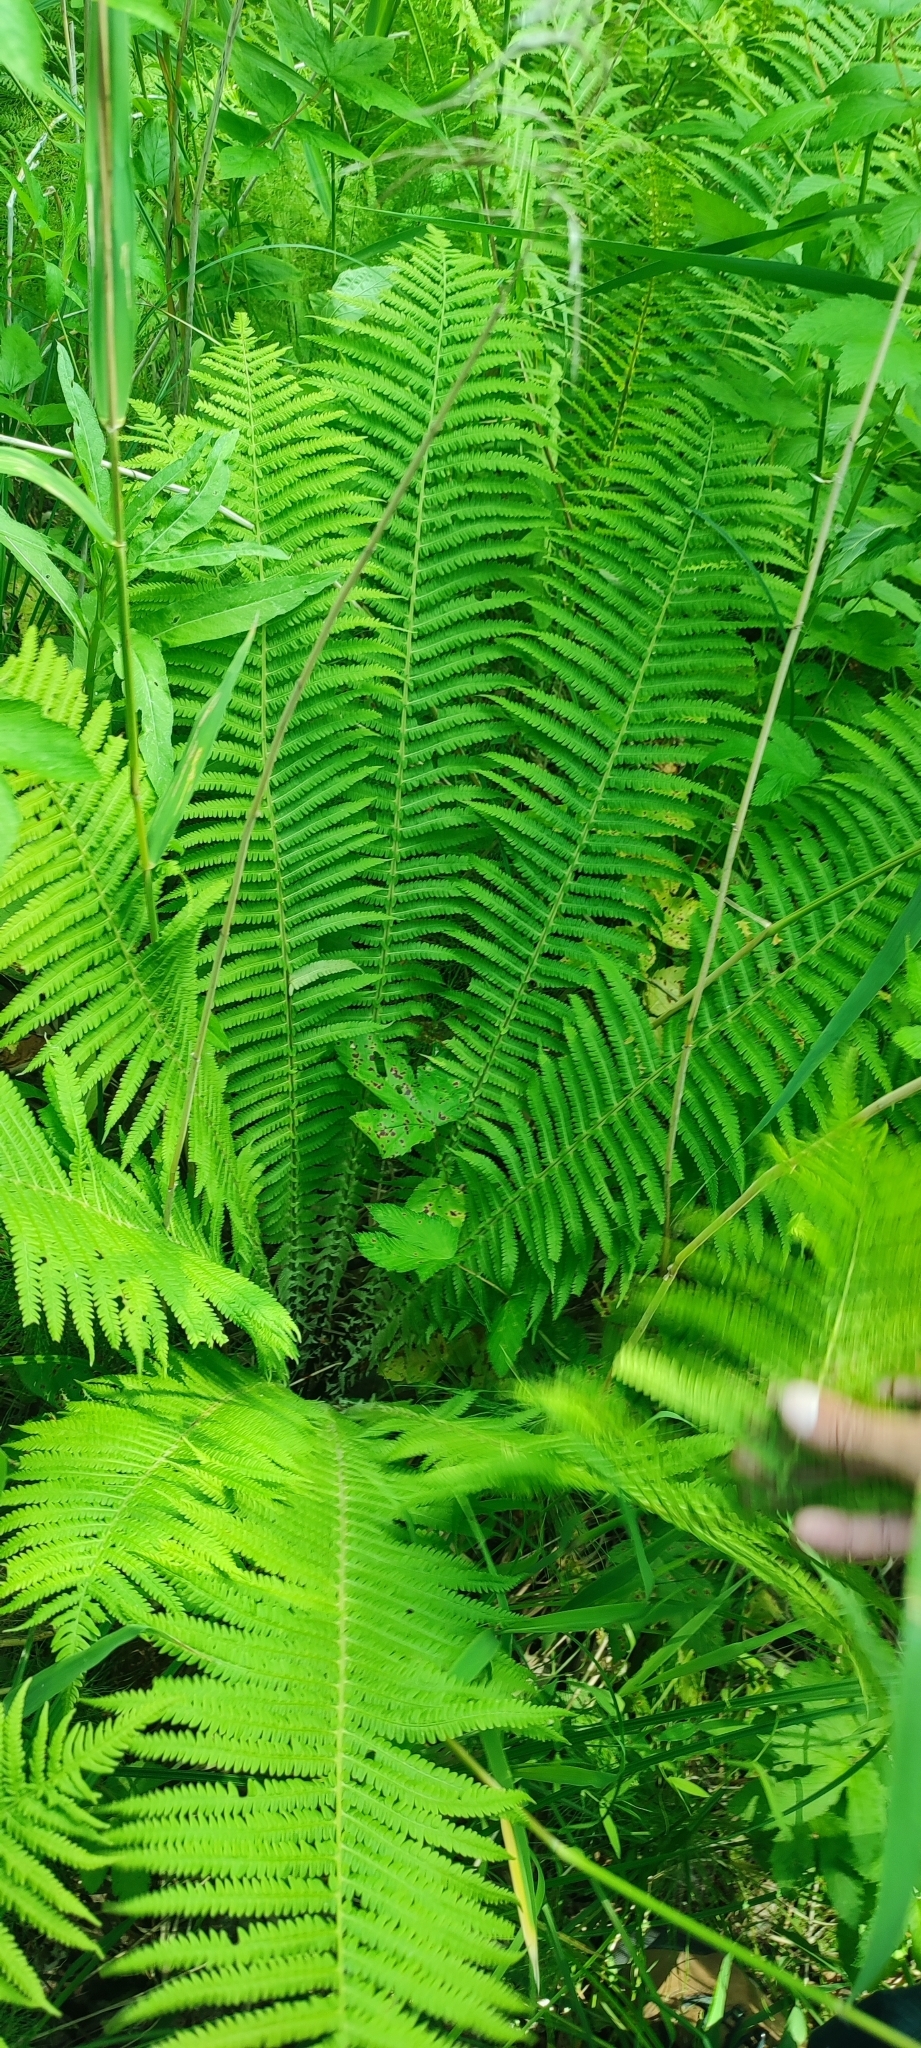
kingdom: Plantae
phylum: Tracheophyta
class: Polypodiopsida
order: Polypodiales
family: Onocleaceae
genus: Matteuccia
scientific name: Matteuccia struthiopteris
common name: Ostrich fern
